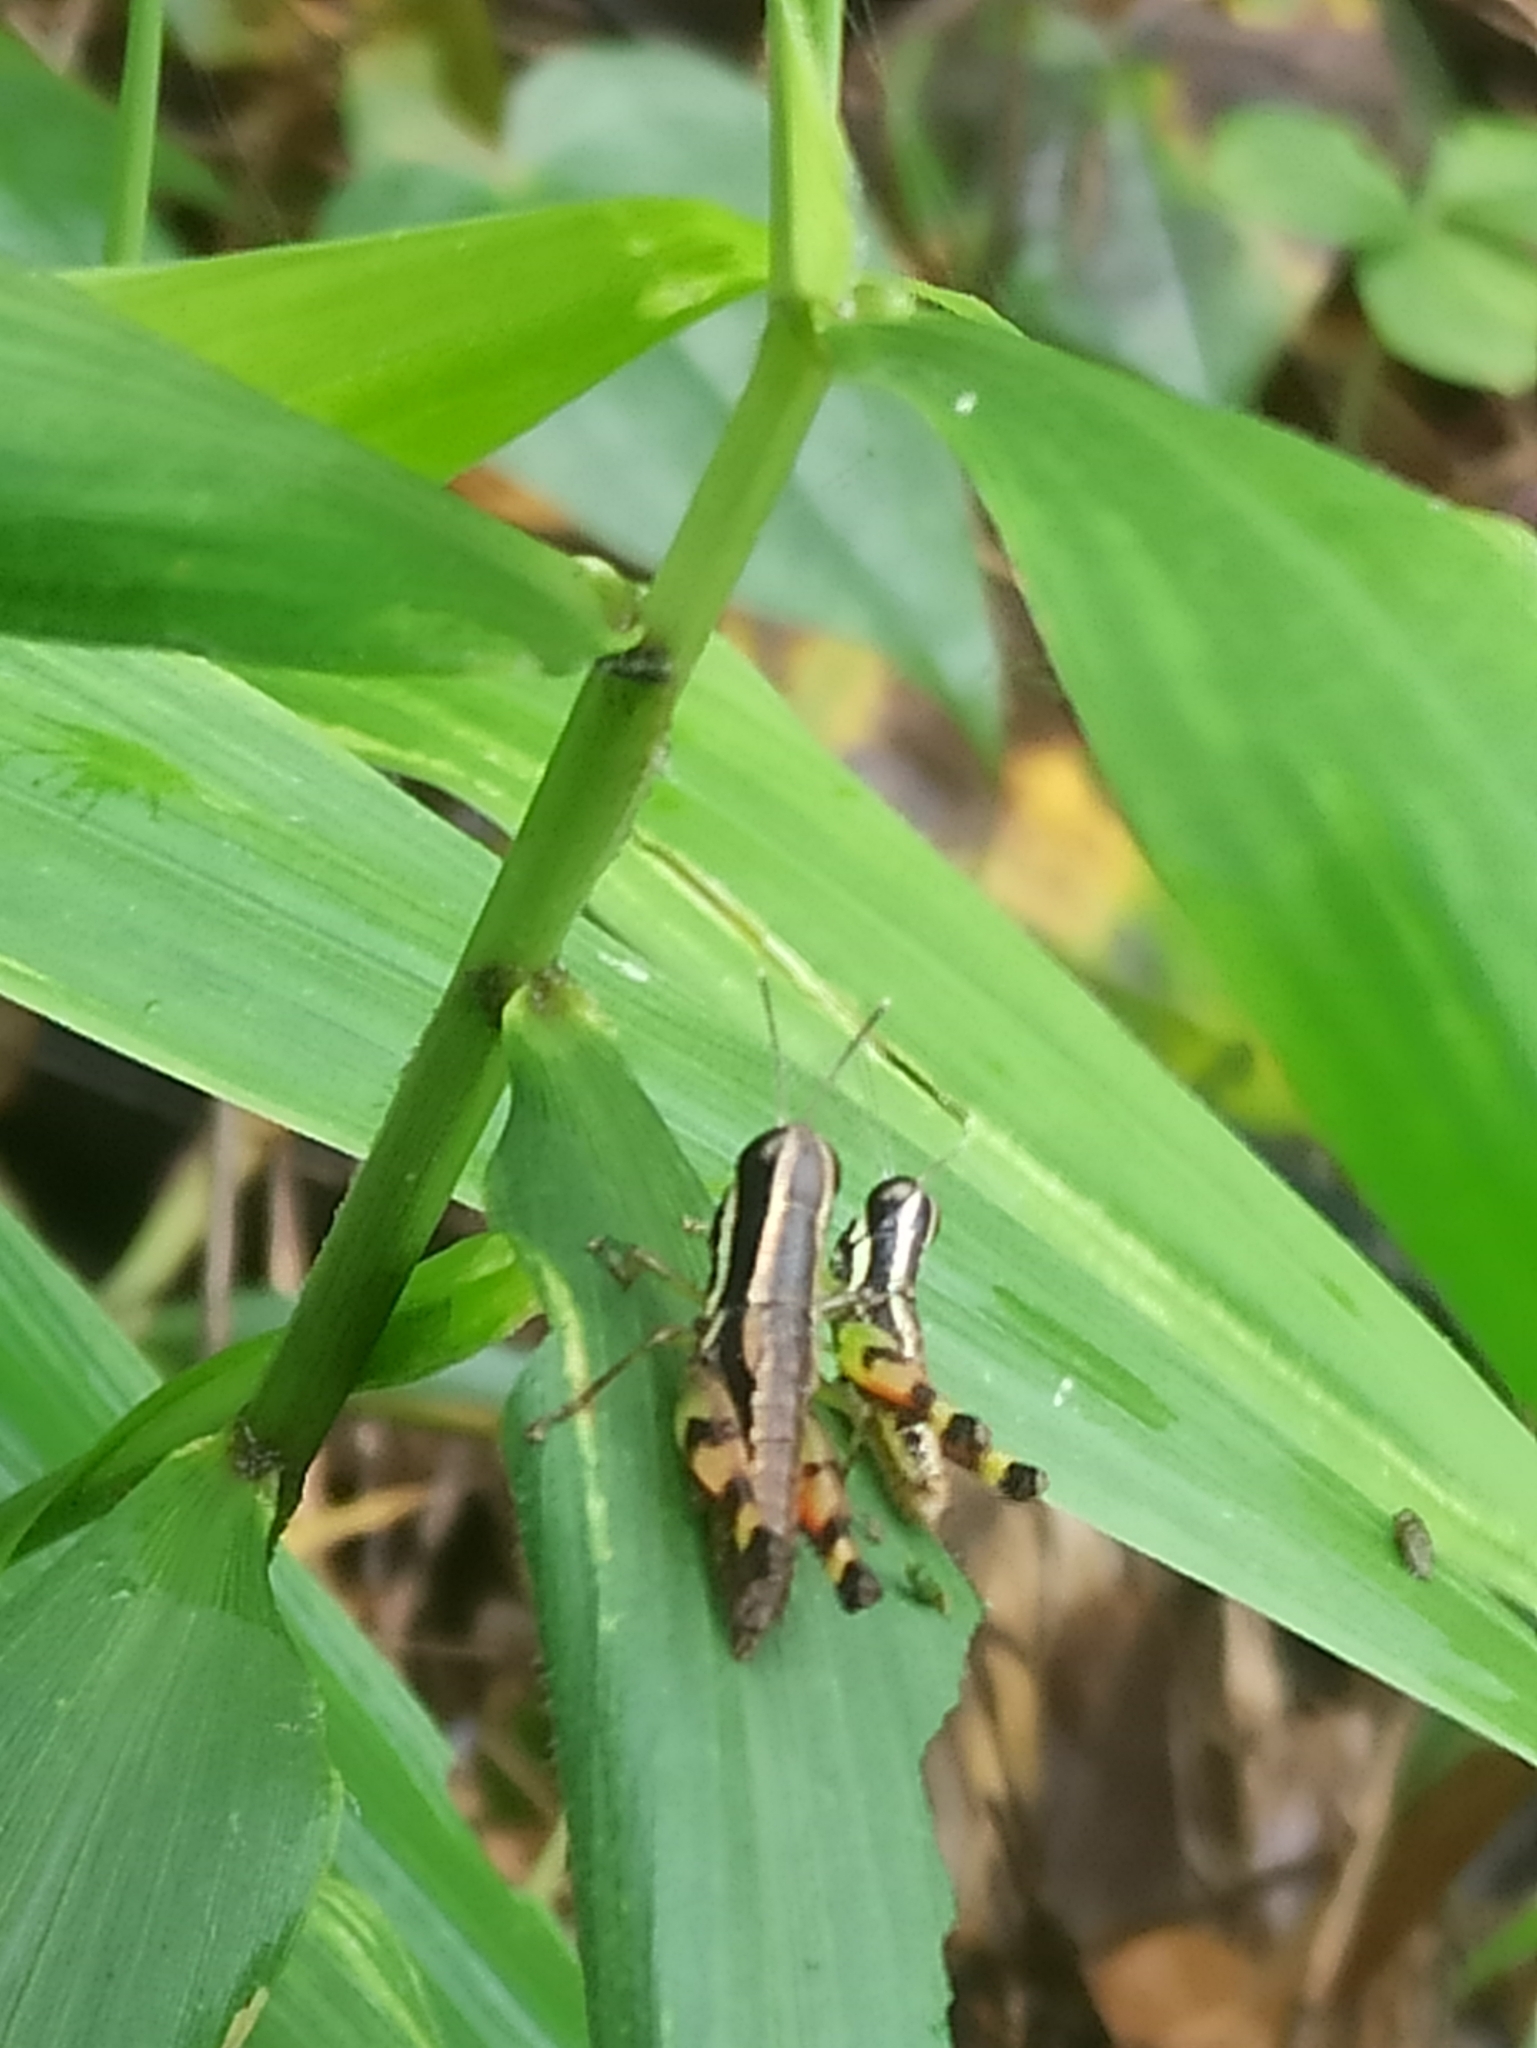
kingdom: Animalia
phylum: Arthropoda
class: Insecta
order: Orthoptera
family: Acrididae
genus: Chitaura
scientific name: Chitaura indica
